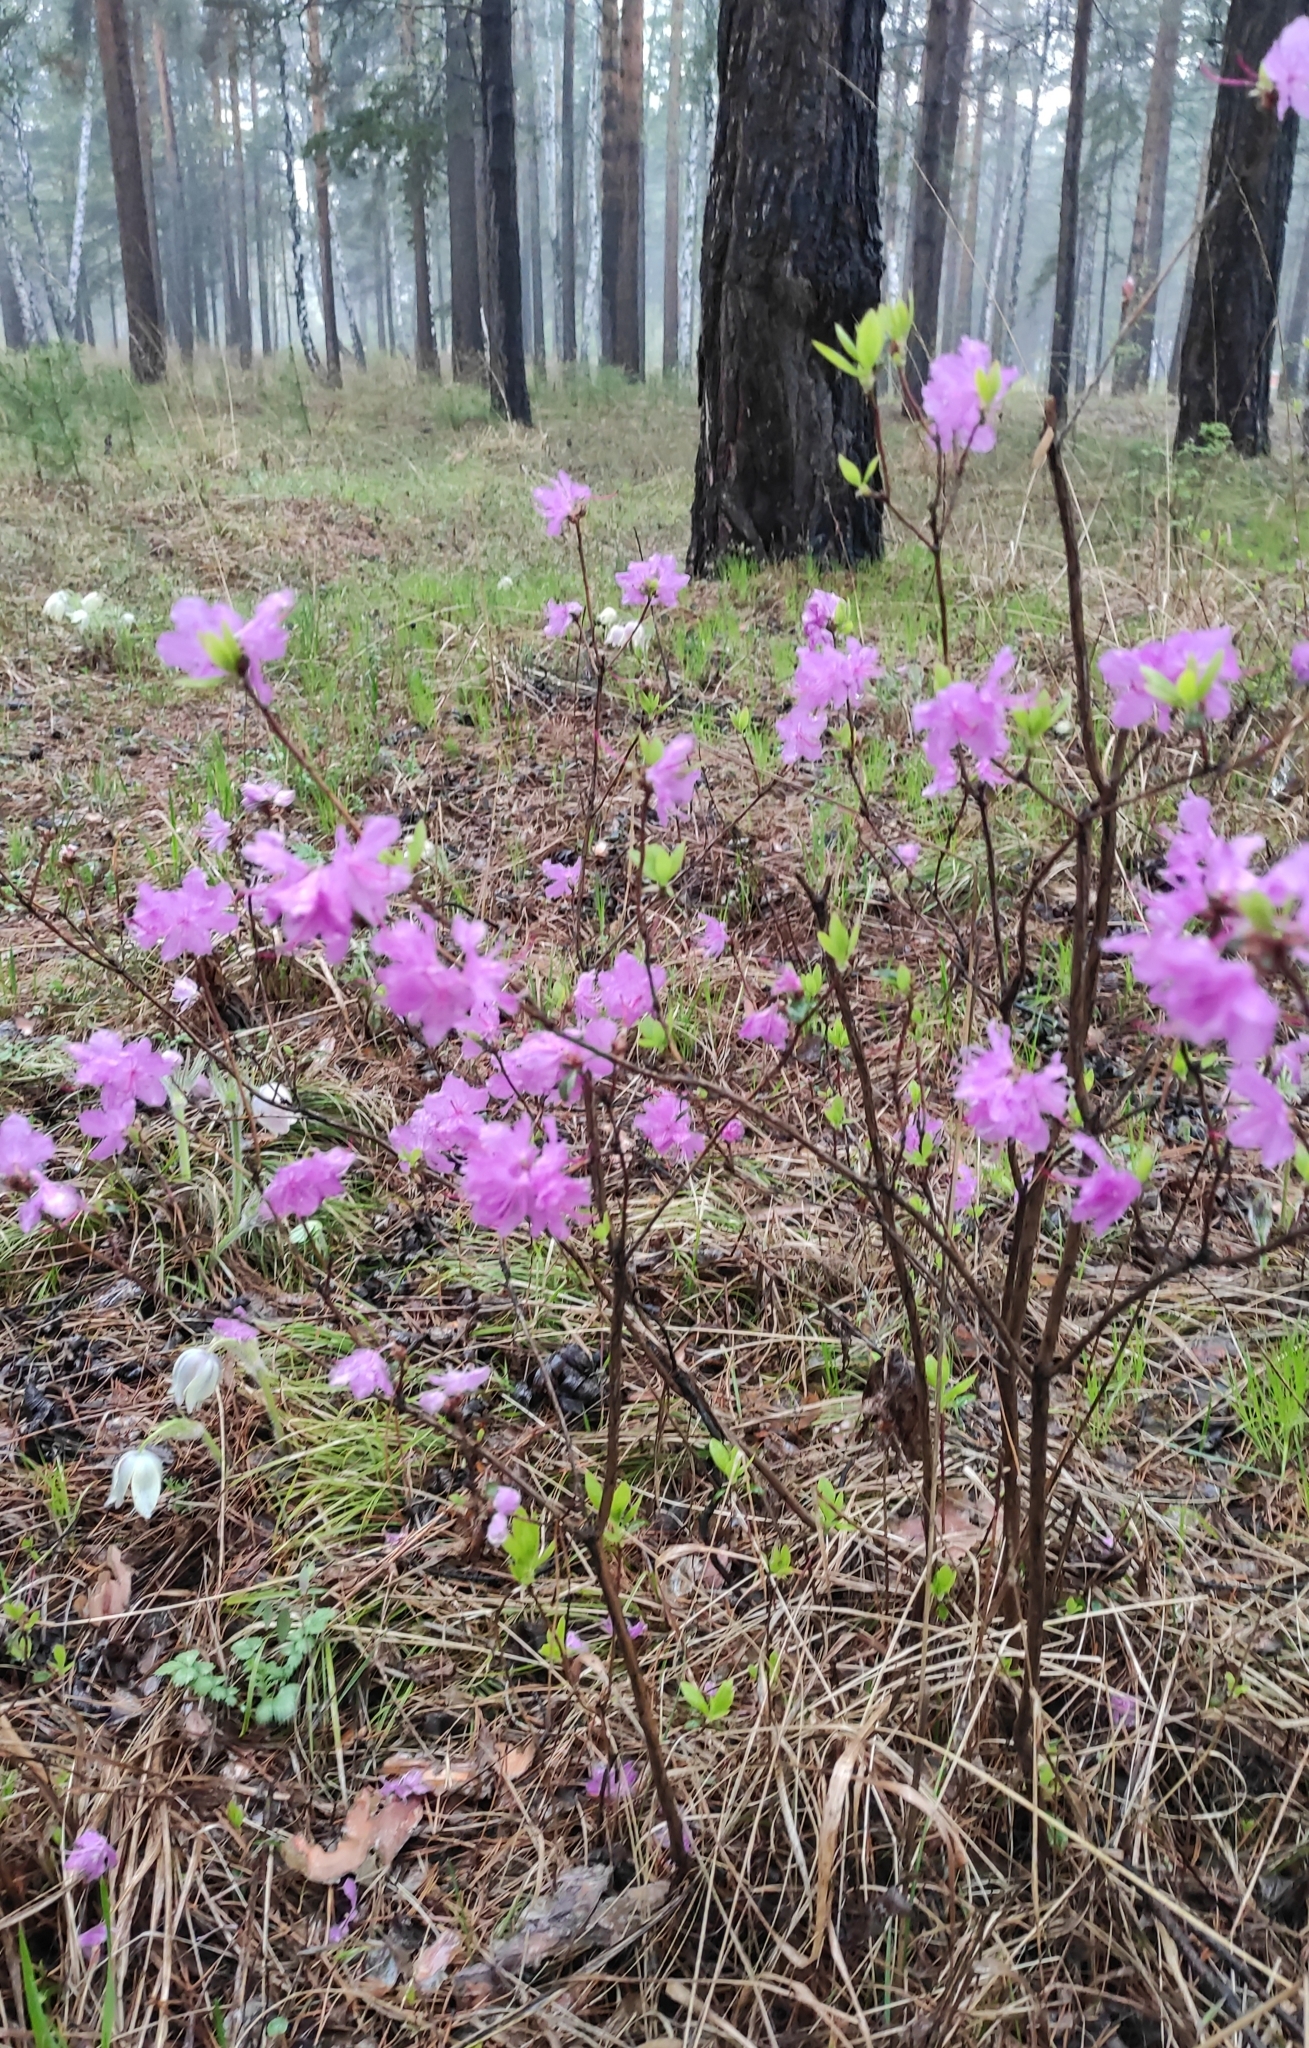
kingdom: Plantae
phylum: Tracheophyta
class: Magnoliopsida
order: Ericales
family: Ericaceae
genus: Rhododendron
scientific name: Rhododendron dauricum
